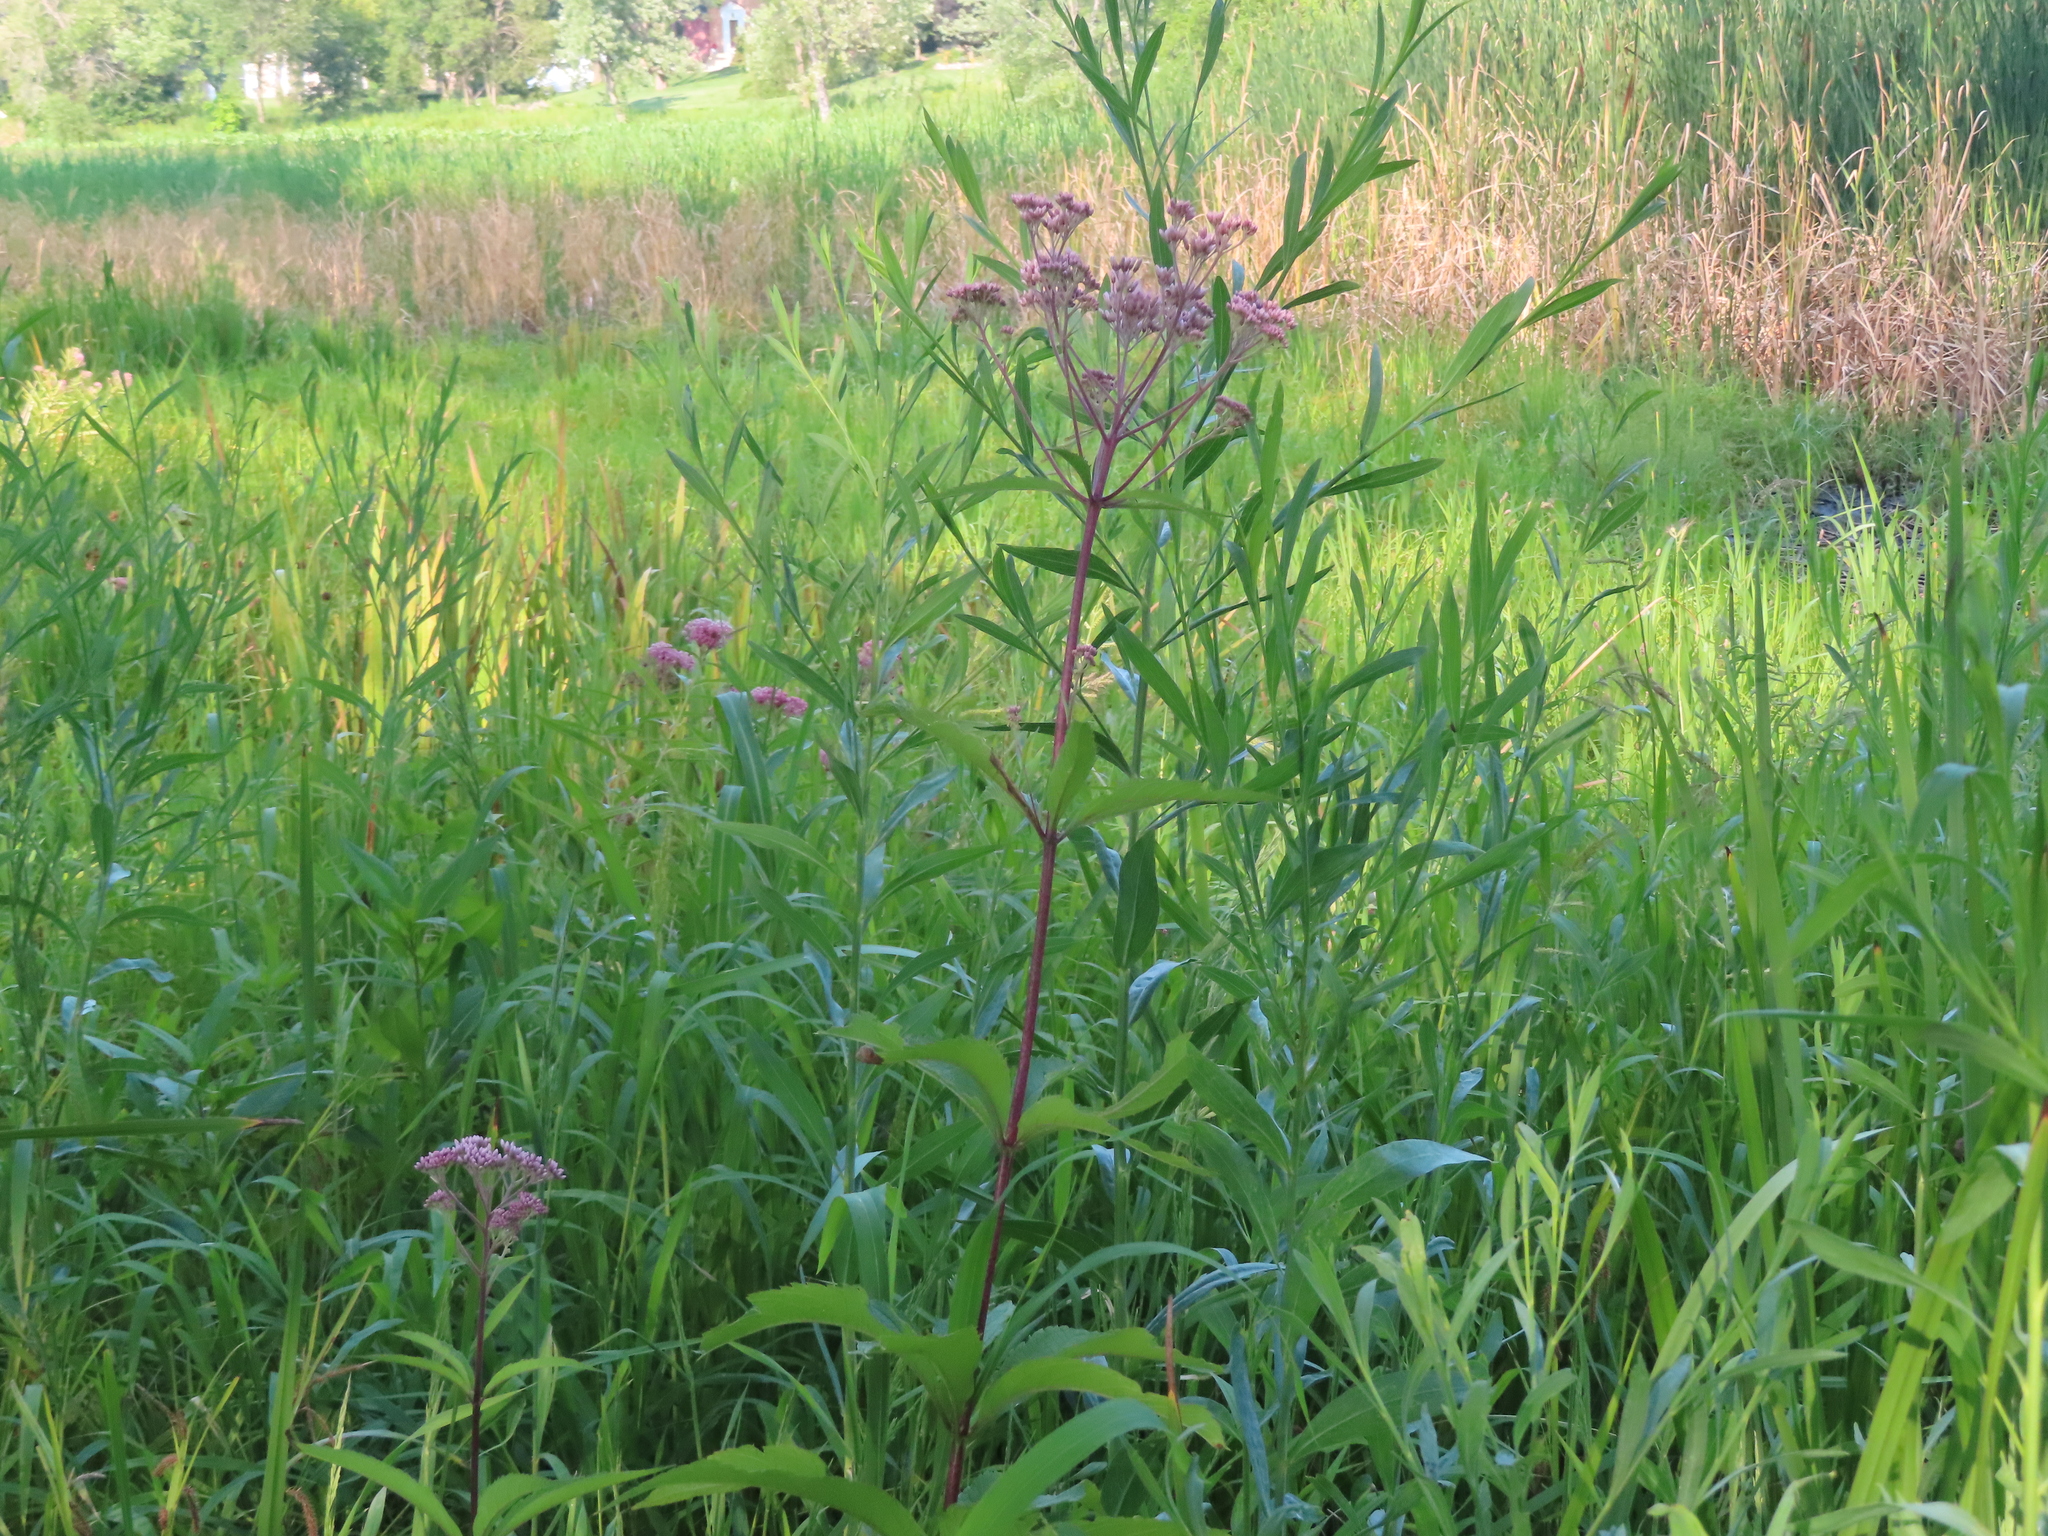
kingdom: Plantae
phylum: Tracheophyta
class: Magnoliopsida
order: Asterales
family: Asteraceae
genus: Eutrochium
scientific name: Eutrochium maculatum
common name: Spotted joe pye weed
